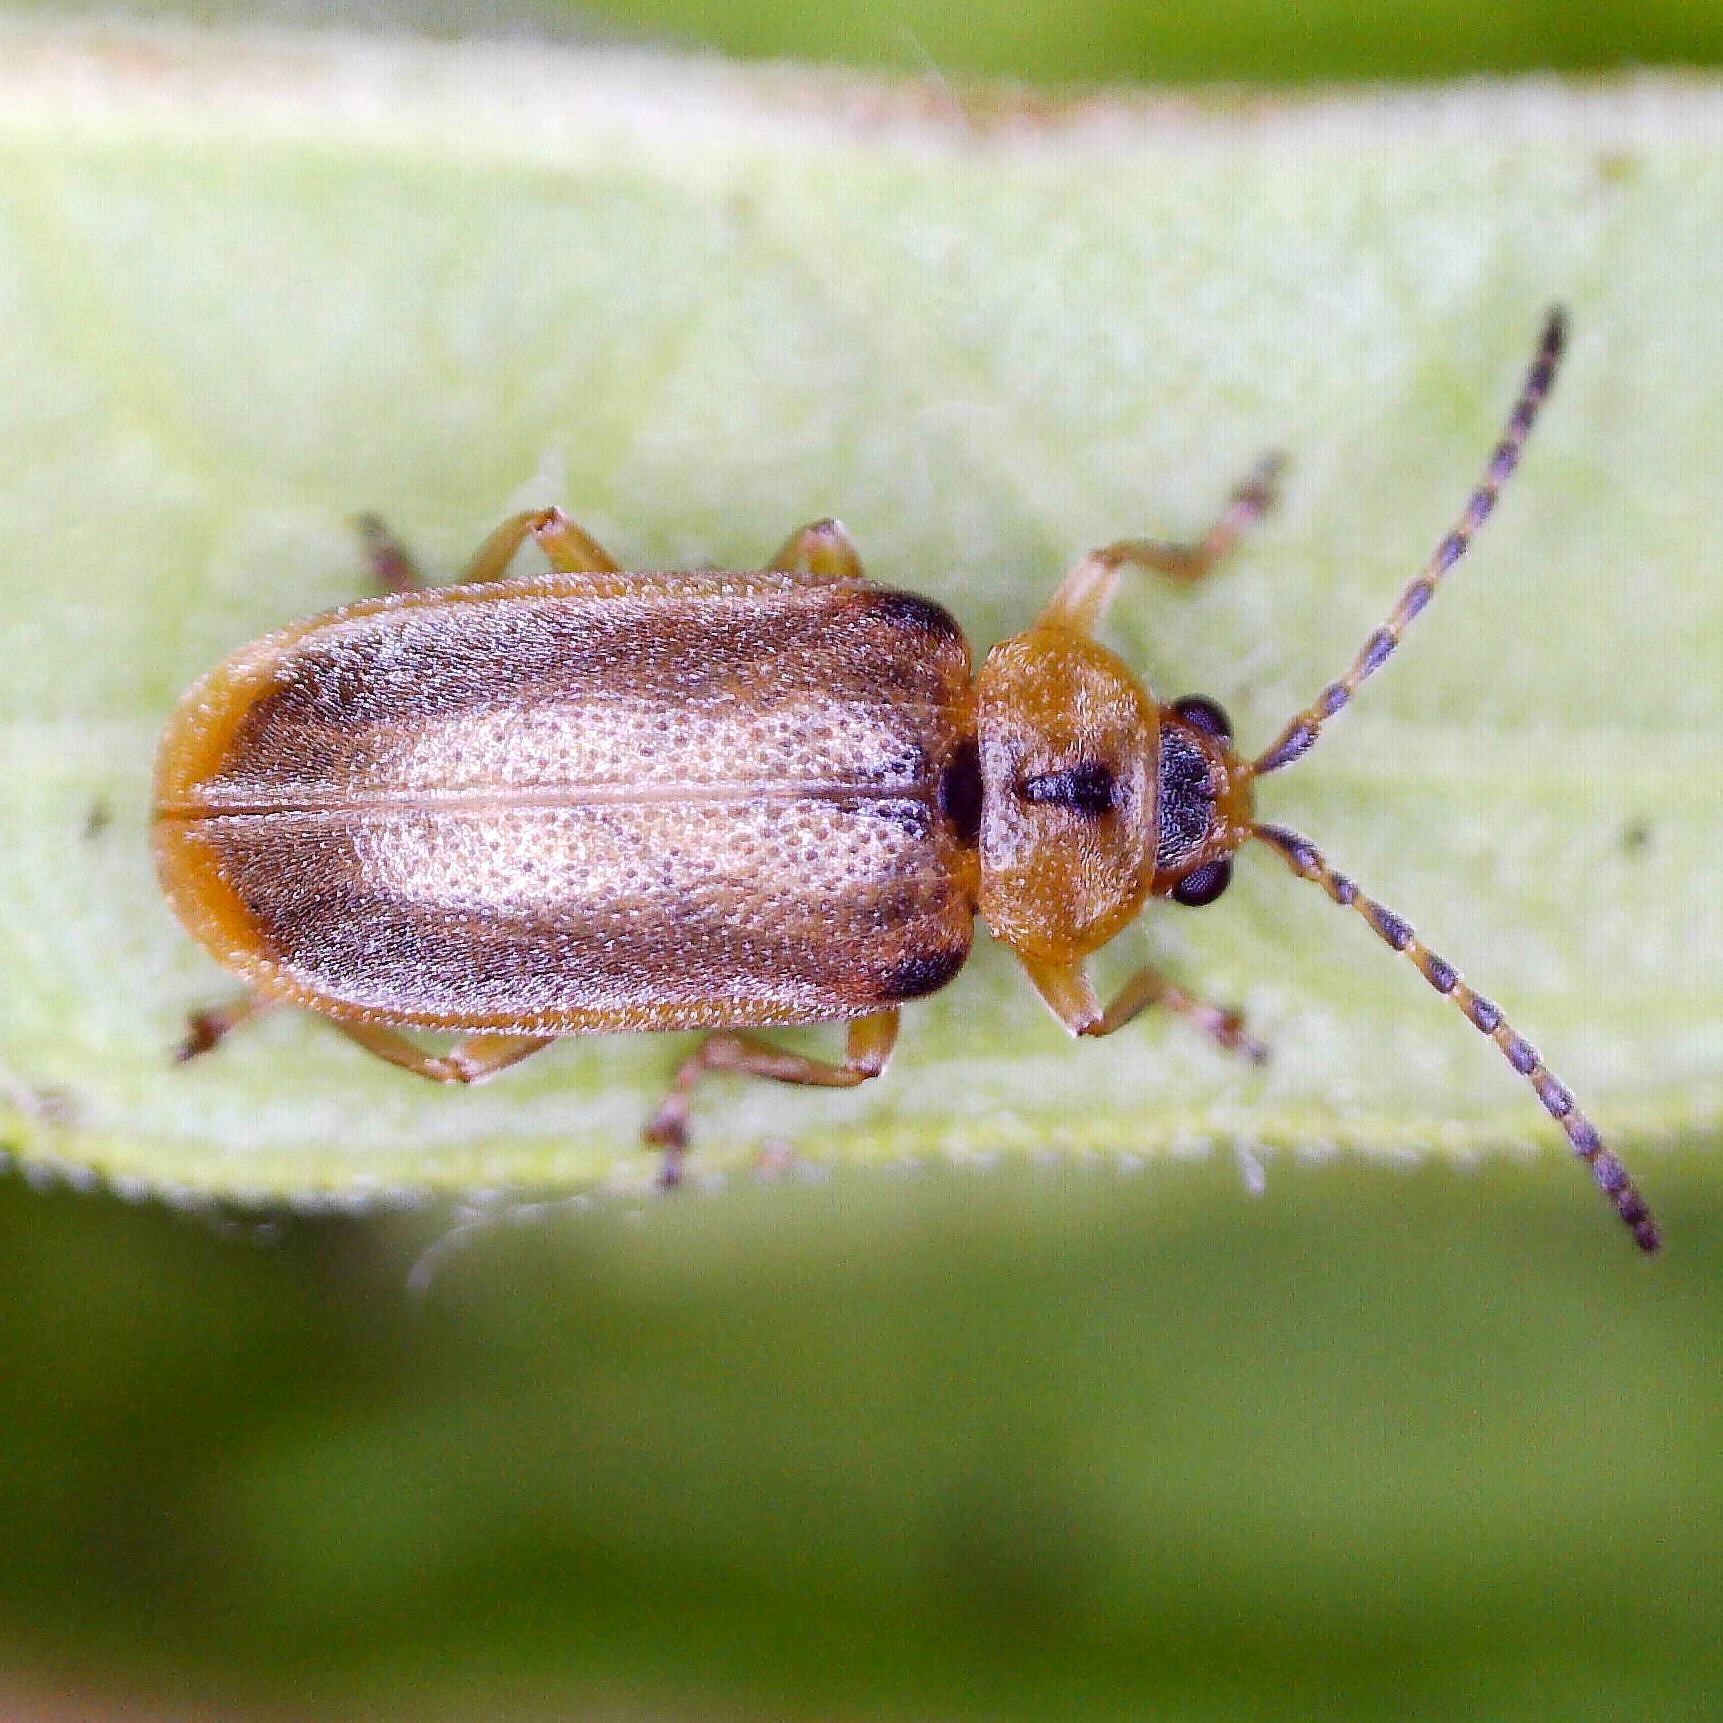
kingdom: Animalia
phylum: Arthropoda
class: Insecta
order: Coleoptera
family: Chrysomelidae
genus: Galerucella
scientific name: Galerucella lineola
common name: Brown willow beetle
